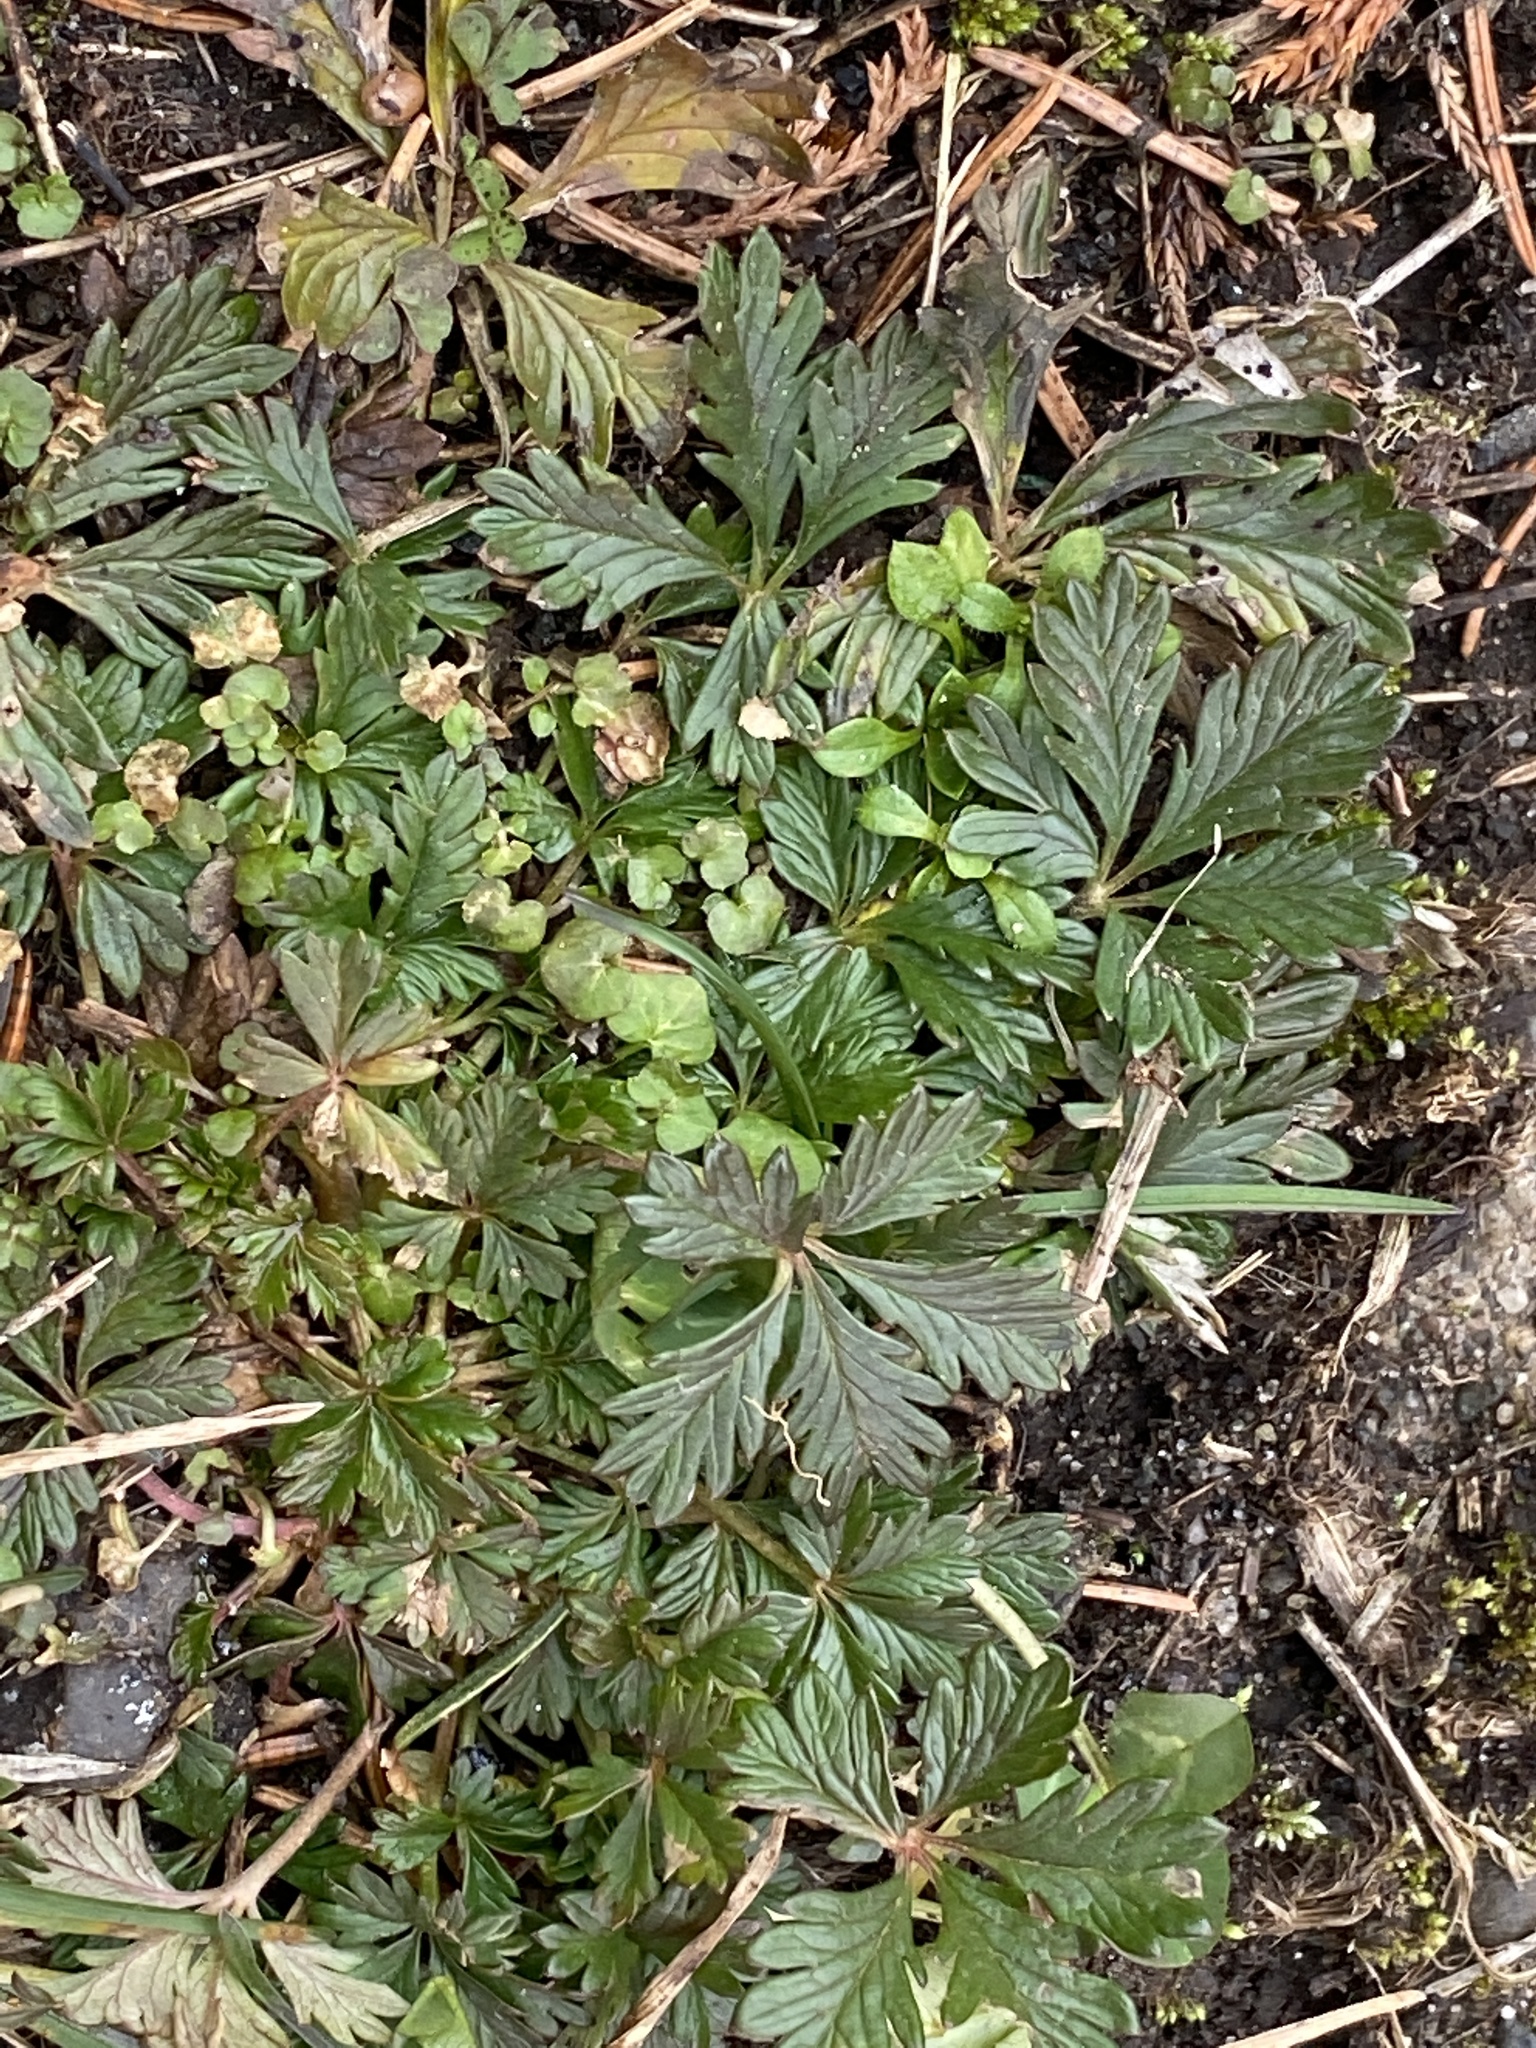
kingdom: Plantae
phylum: Tracheophyta
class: Magnoliopsida
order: Rosales
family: Rosaceae
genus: Potentilla
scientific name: Potentilla argentea
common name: Hoary cinquefoil
